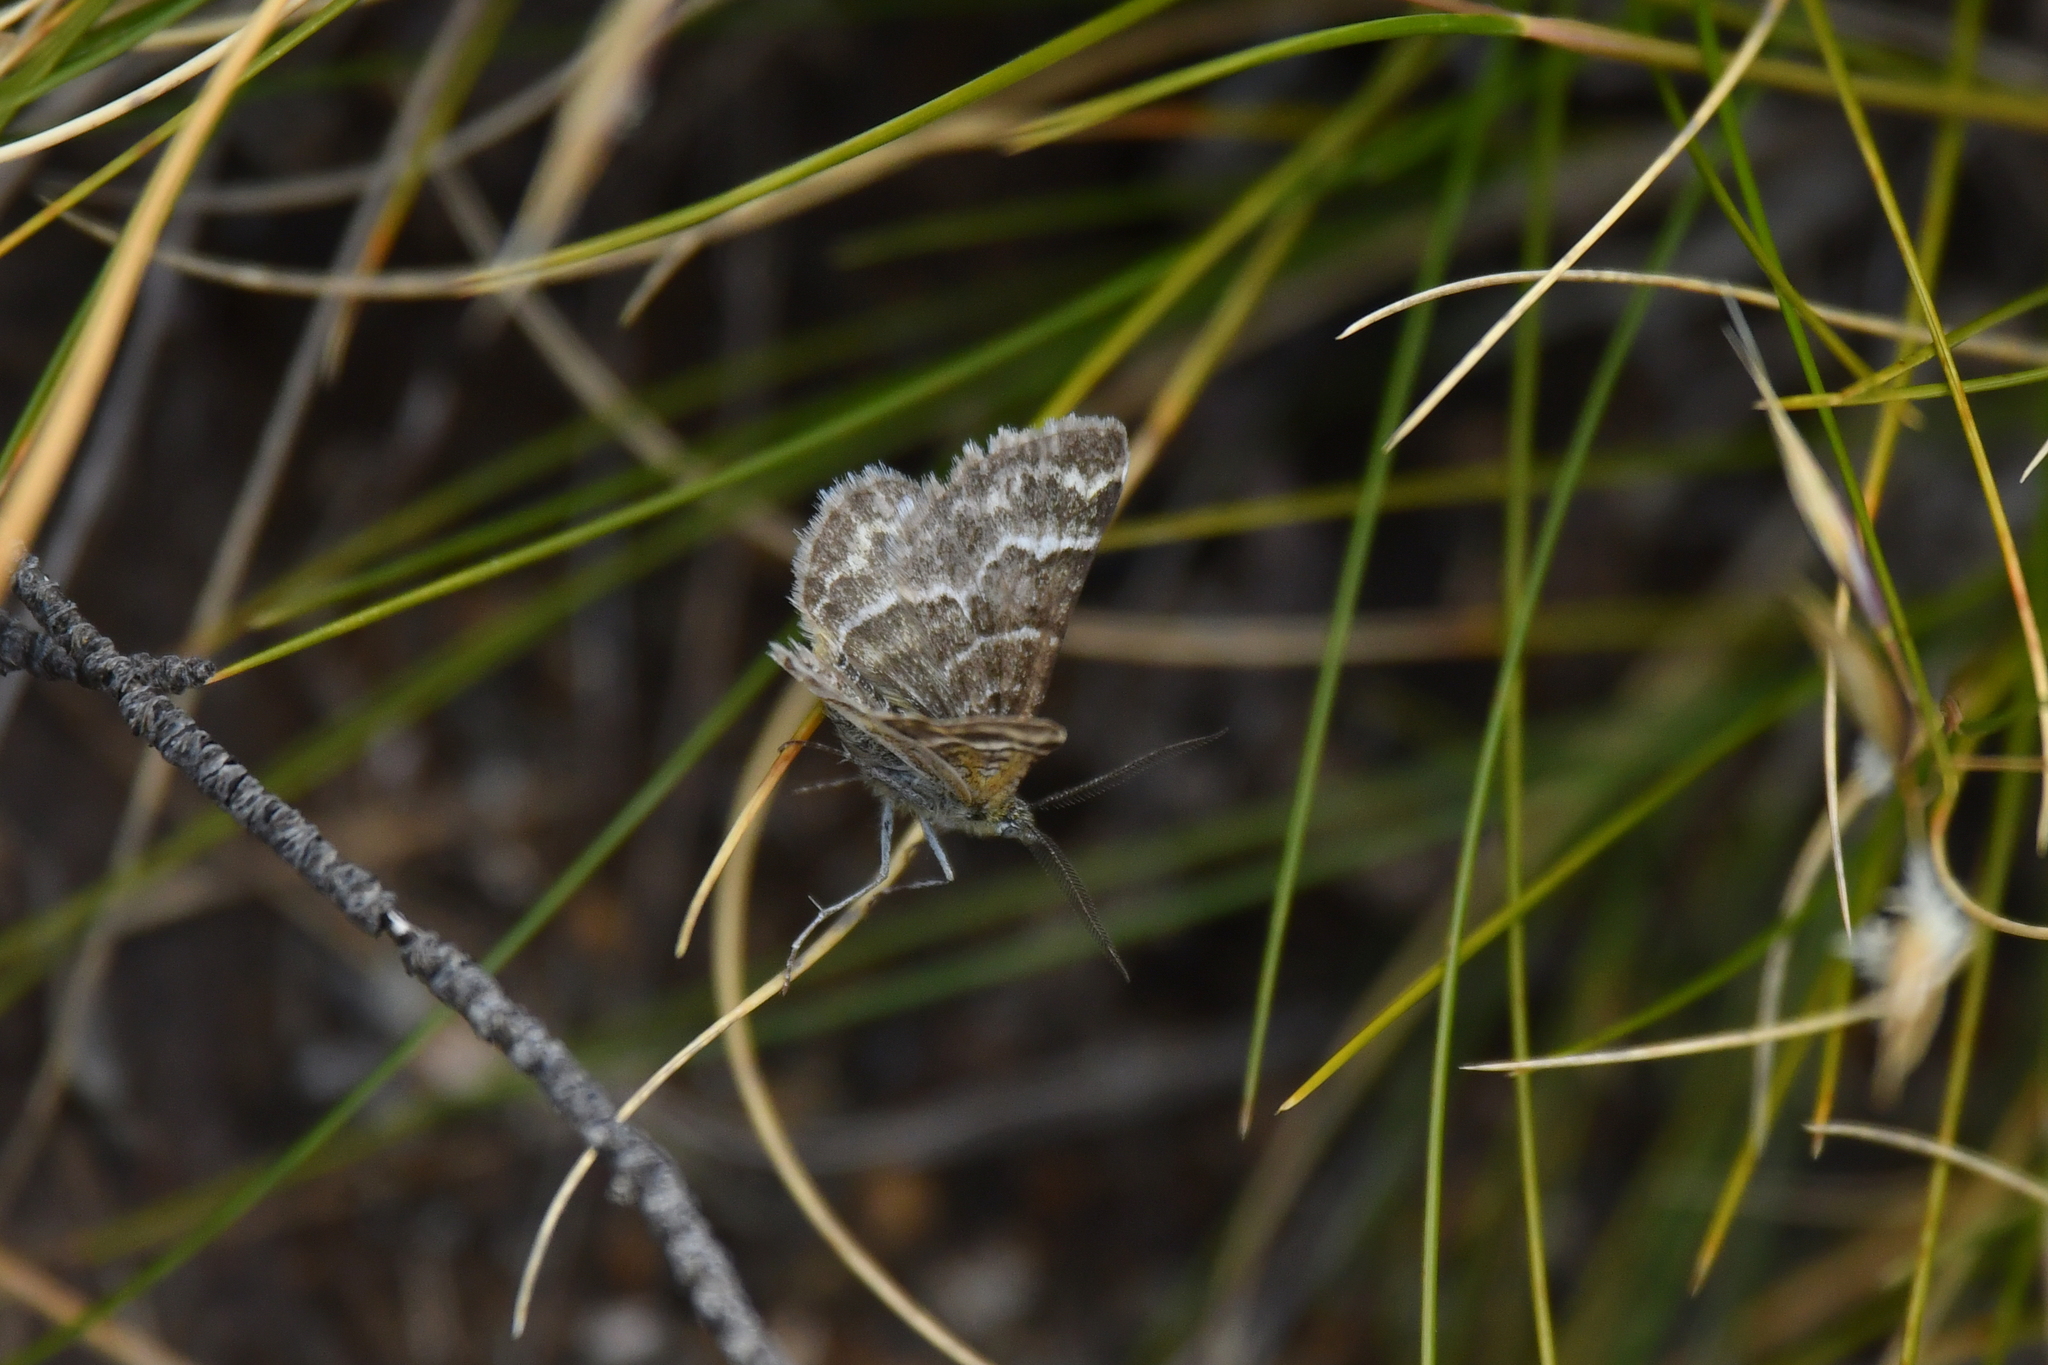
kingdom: Animalia
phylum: Arthropoda
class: Insecta
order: Lepidoptera
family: Geometridae
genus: Notoreas
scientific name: Notoreas paradelpha
